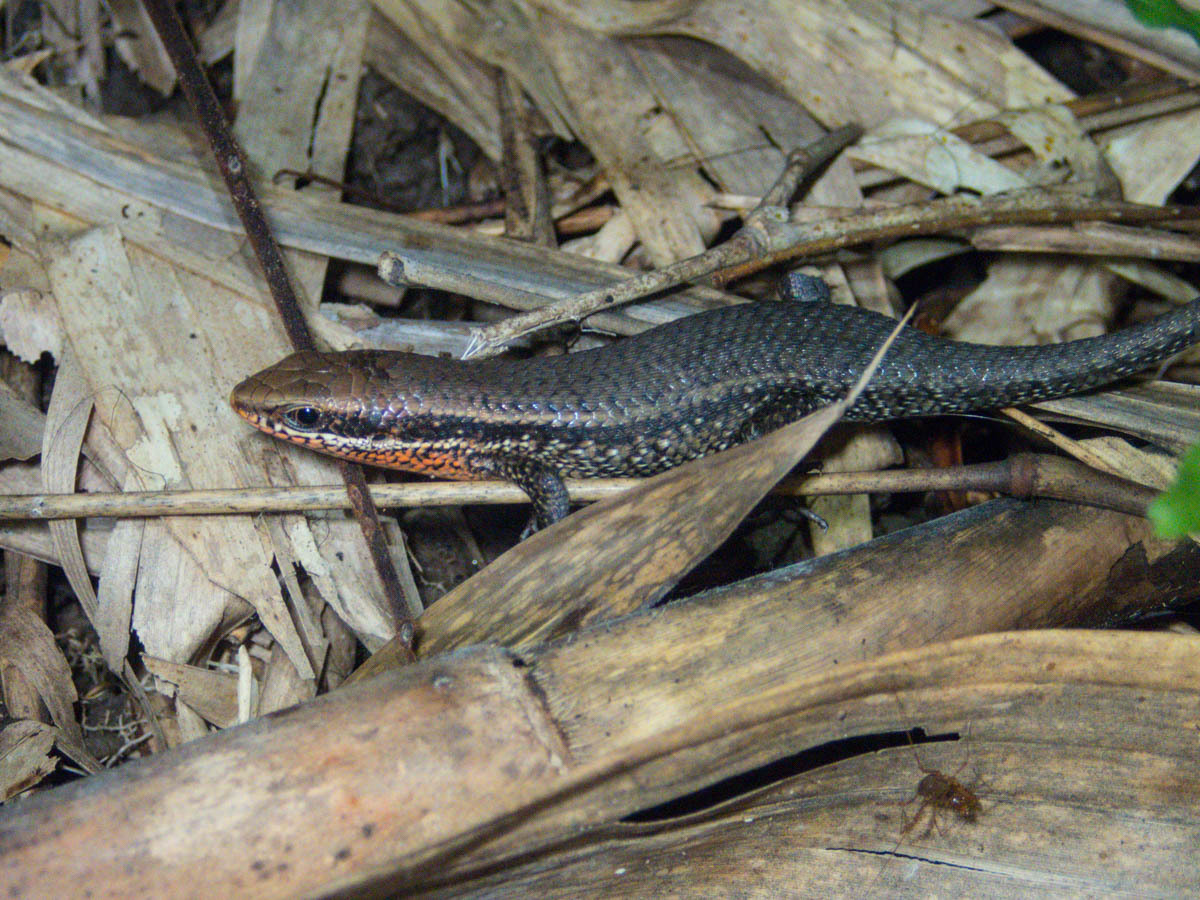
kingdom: Animalia
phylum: Chordata
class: Squamata
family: Scincidae
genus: Eutropis
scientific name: Eutropis macularia
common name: Bronze mabuya
